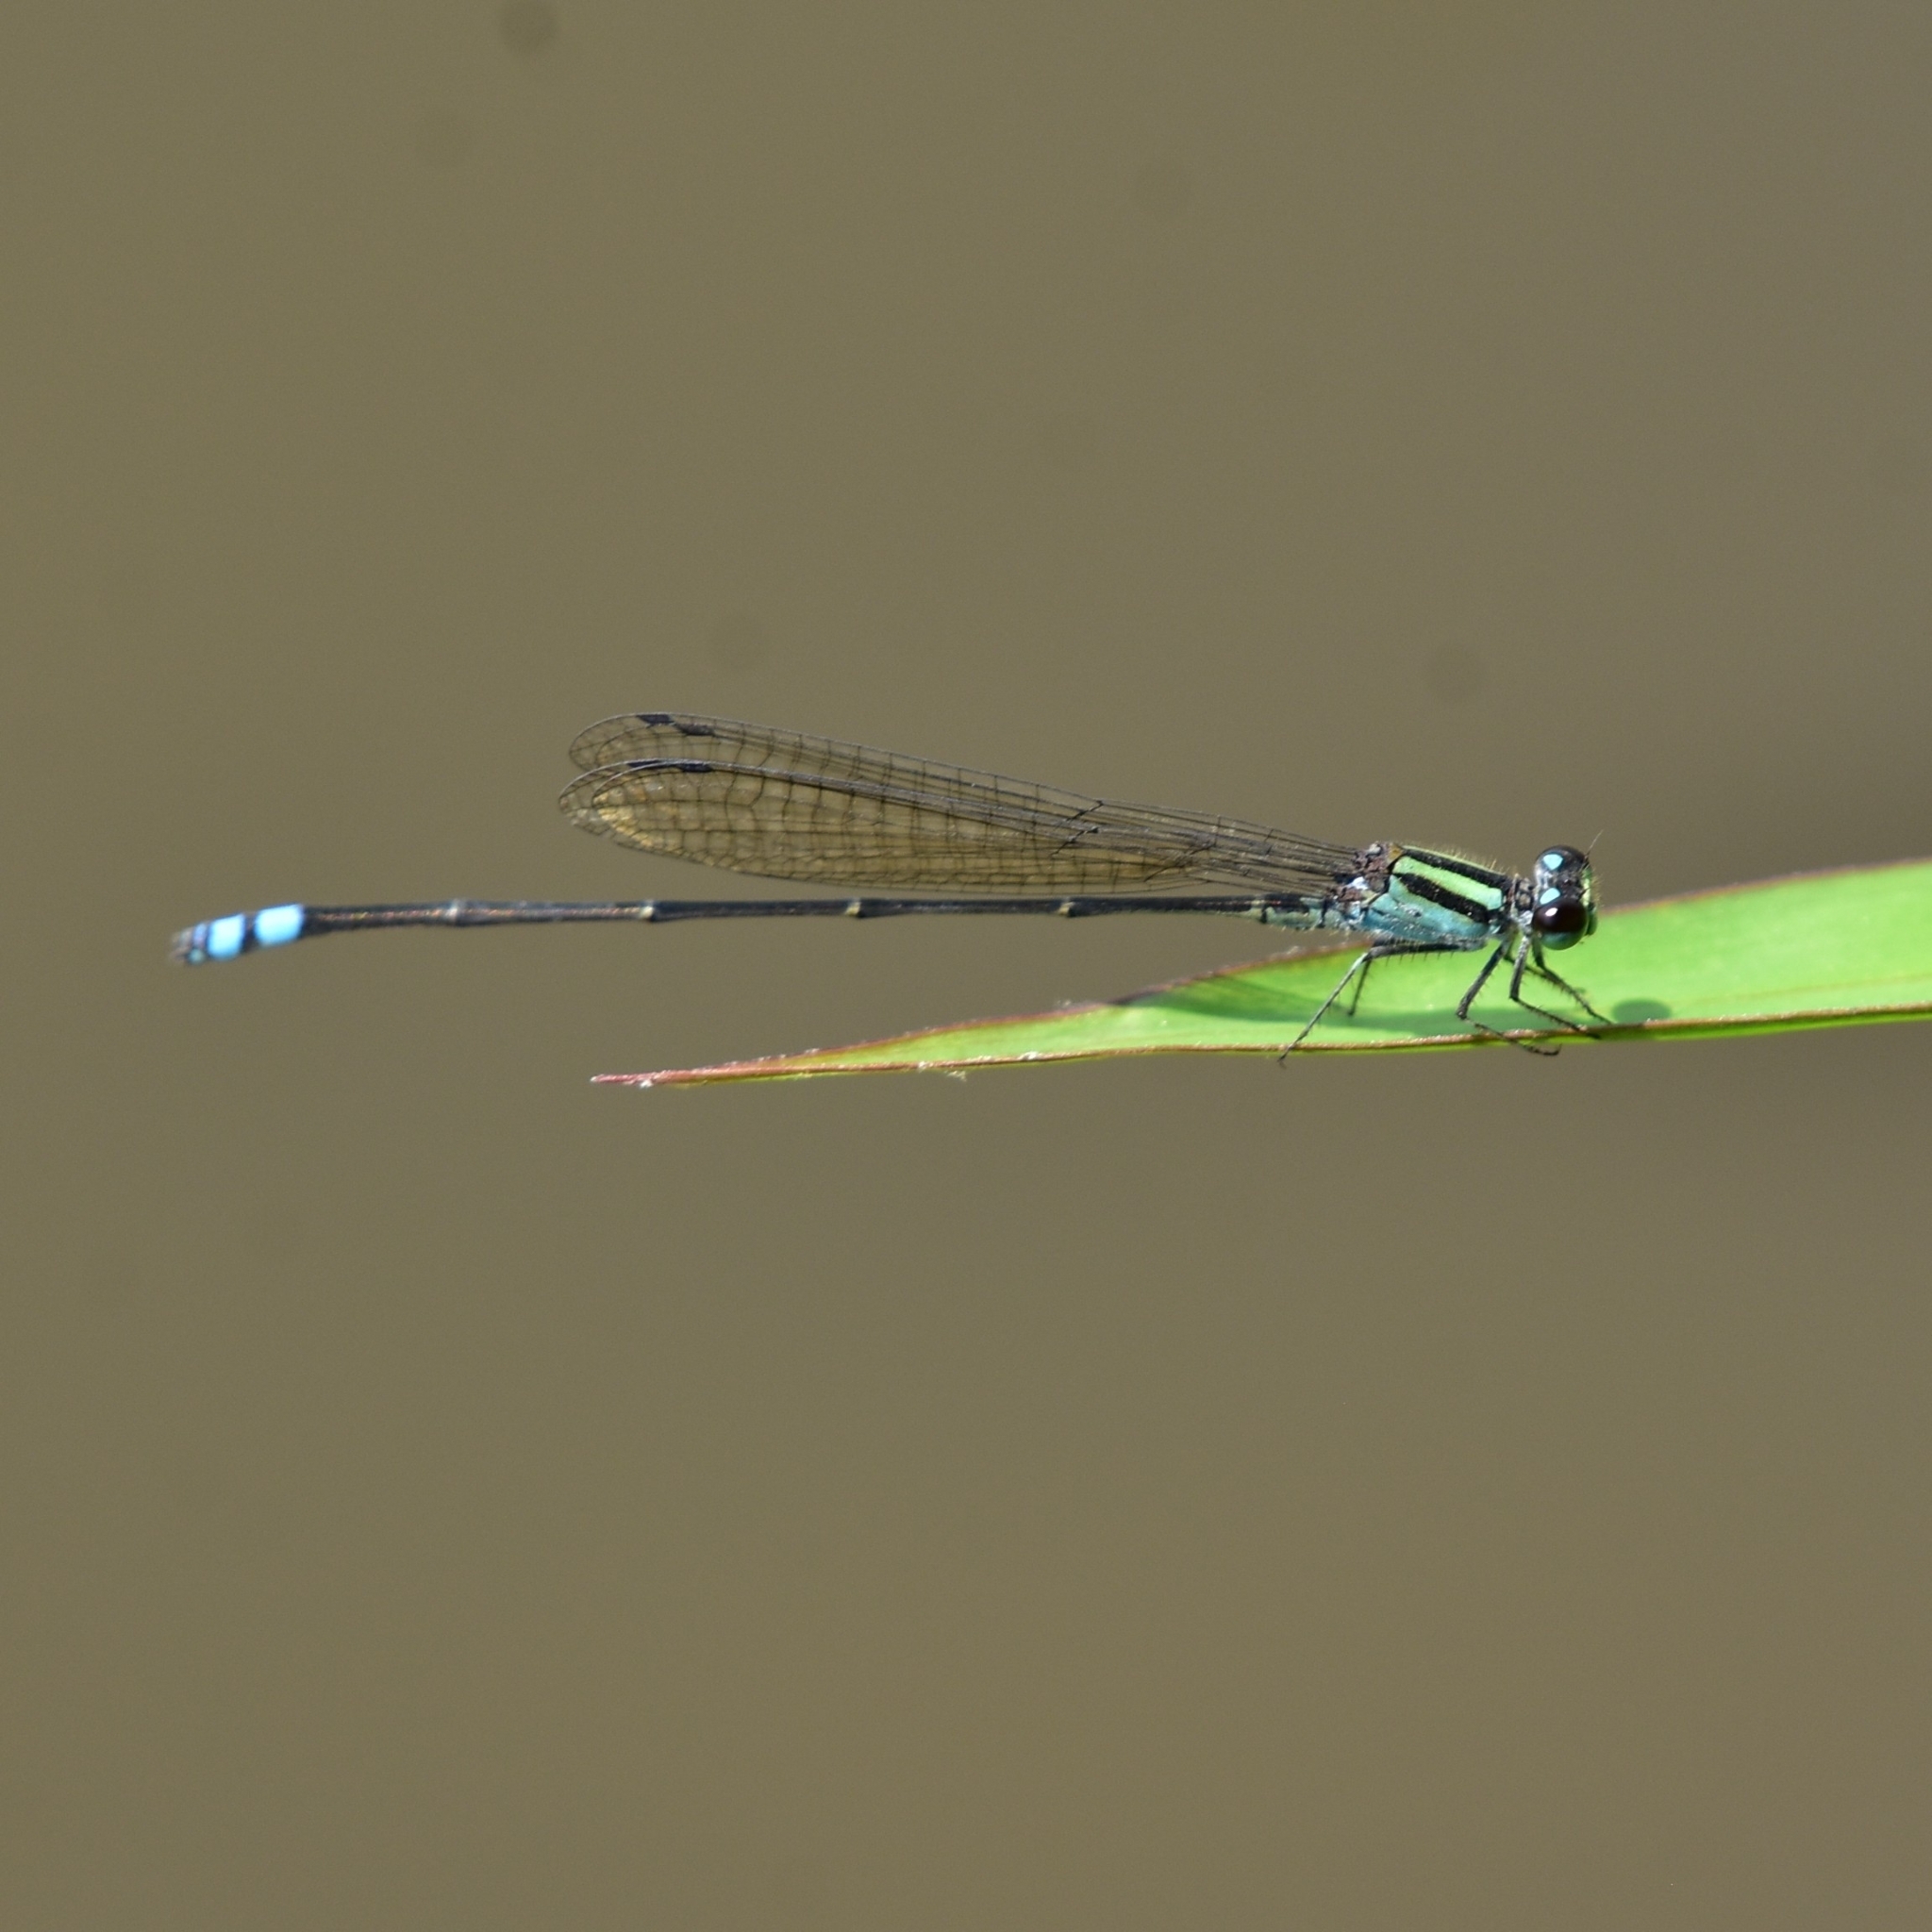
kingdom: Animalia
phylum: Arthropoda
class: Insecta
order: Odonata
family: Coenagrionidae
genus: Pseudagrion
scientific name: Pseudagrion indicum
